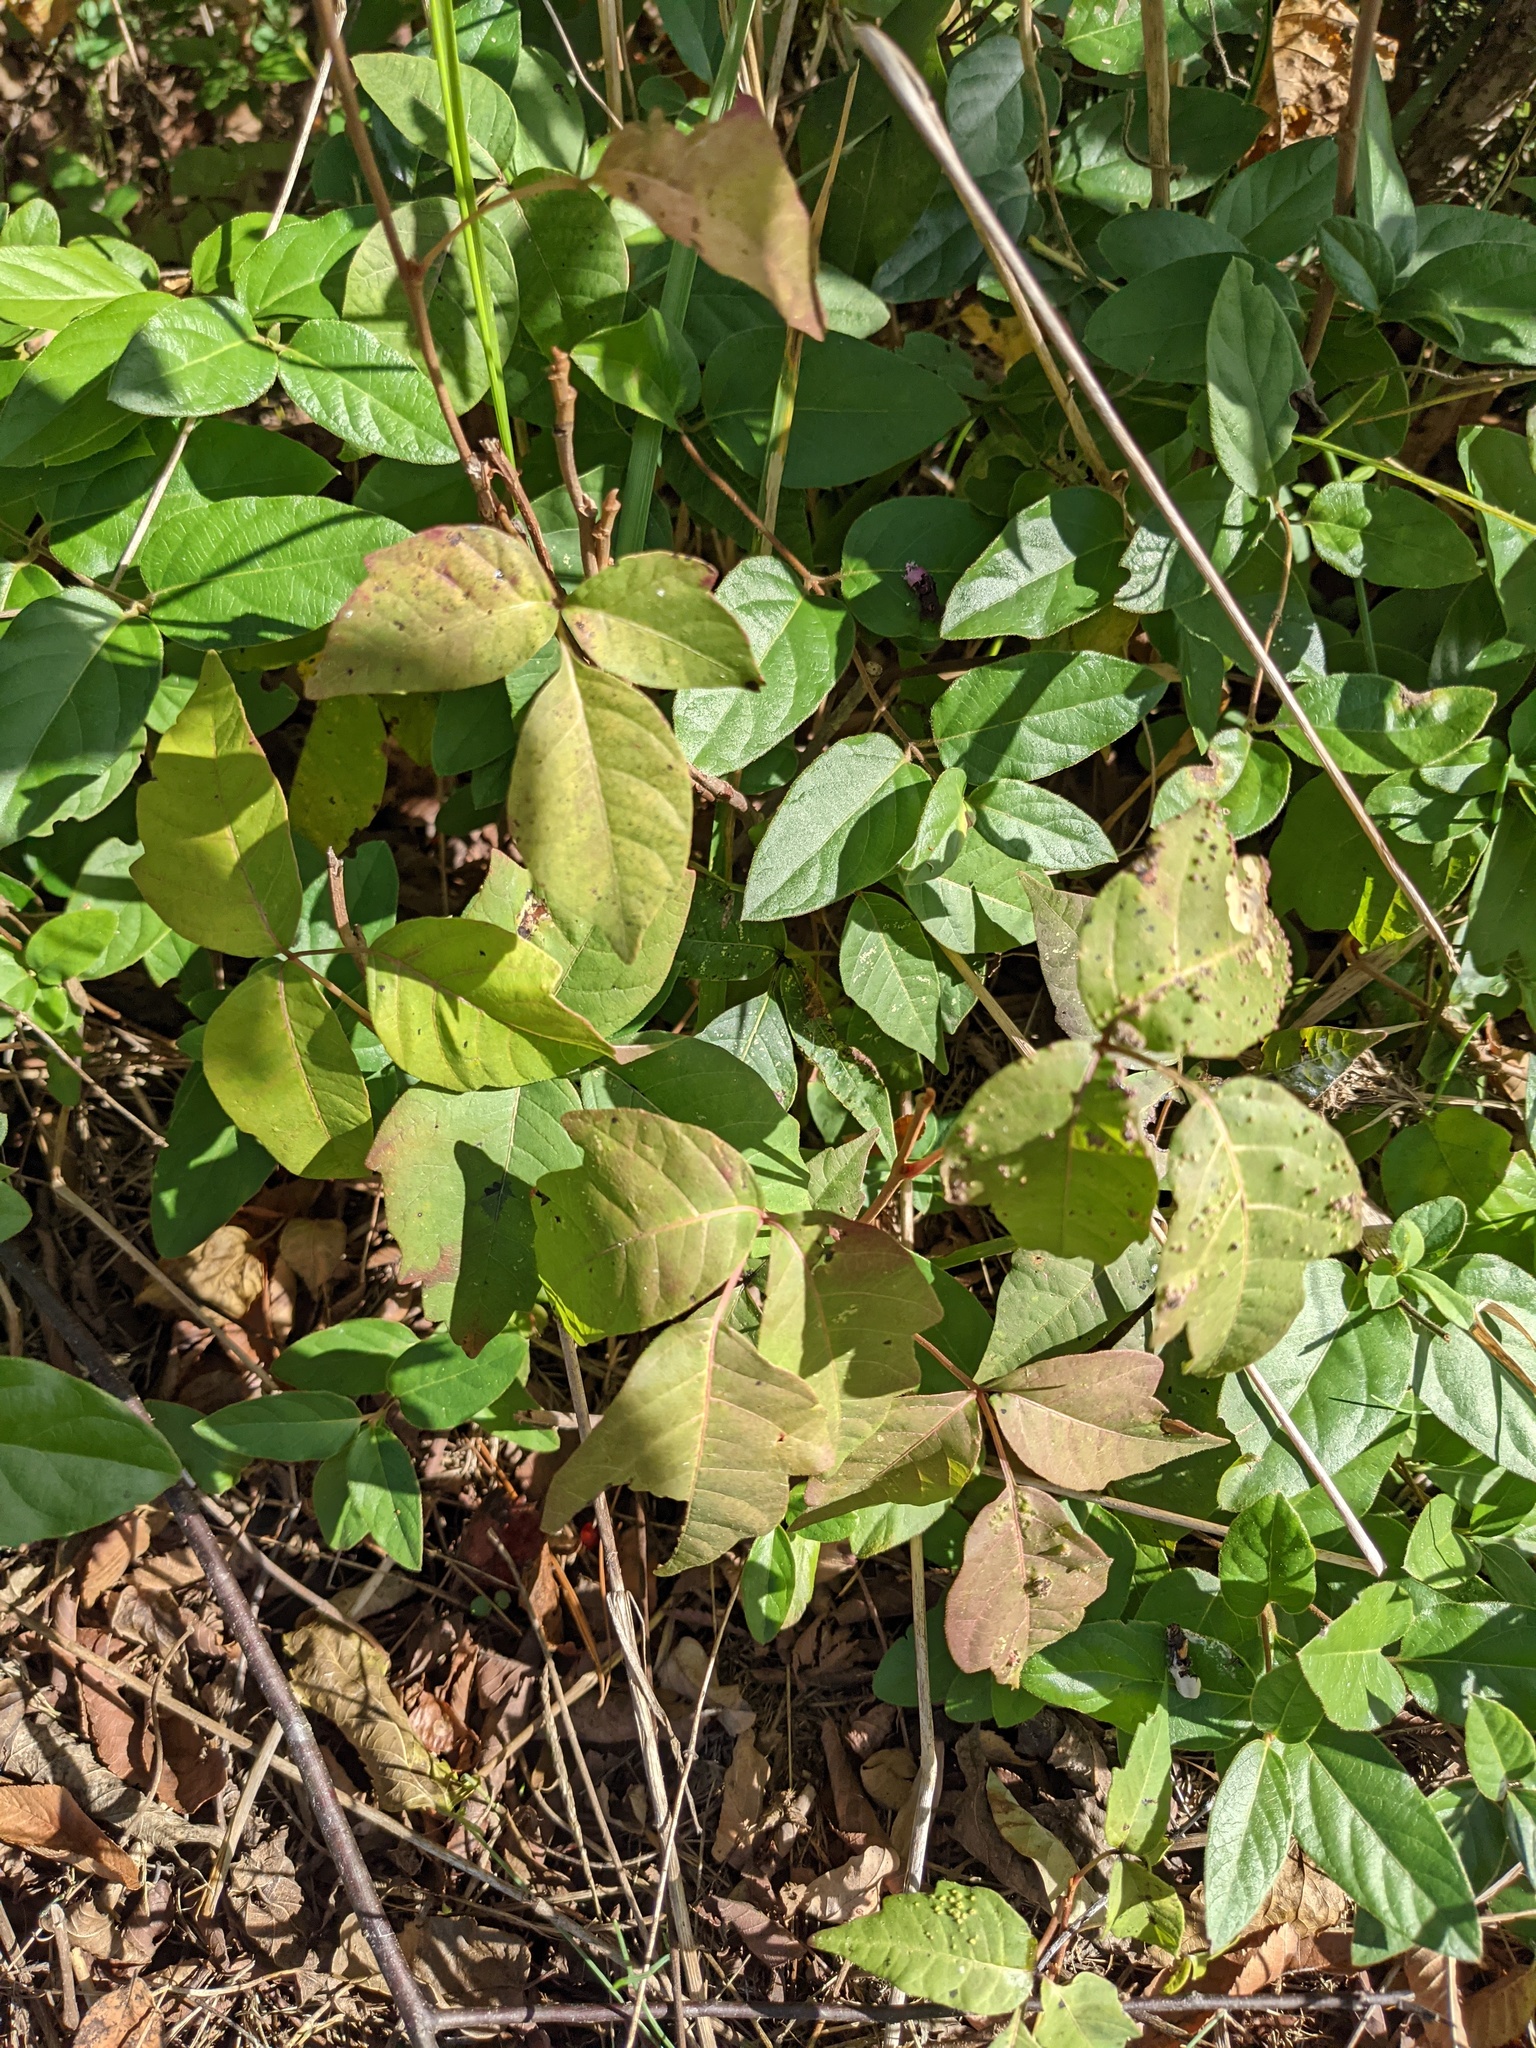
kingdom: Plantae
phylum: Tracheophyta
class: Magnoliopsida
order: Sapindales
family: Anacardiaceae
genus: Toxicodendron
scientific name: Toxicodendron radicans
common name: Poison ivy
